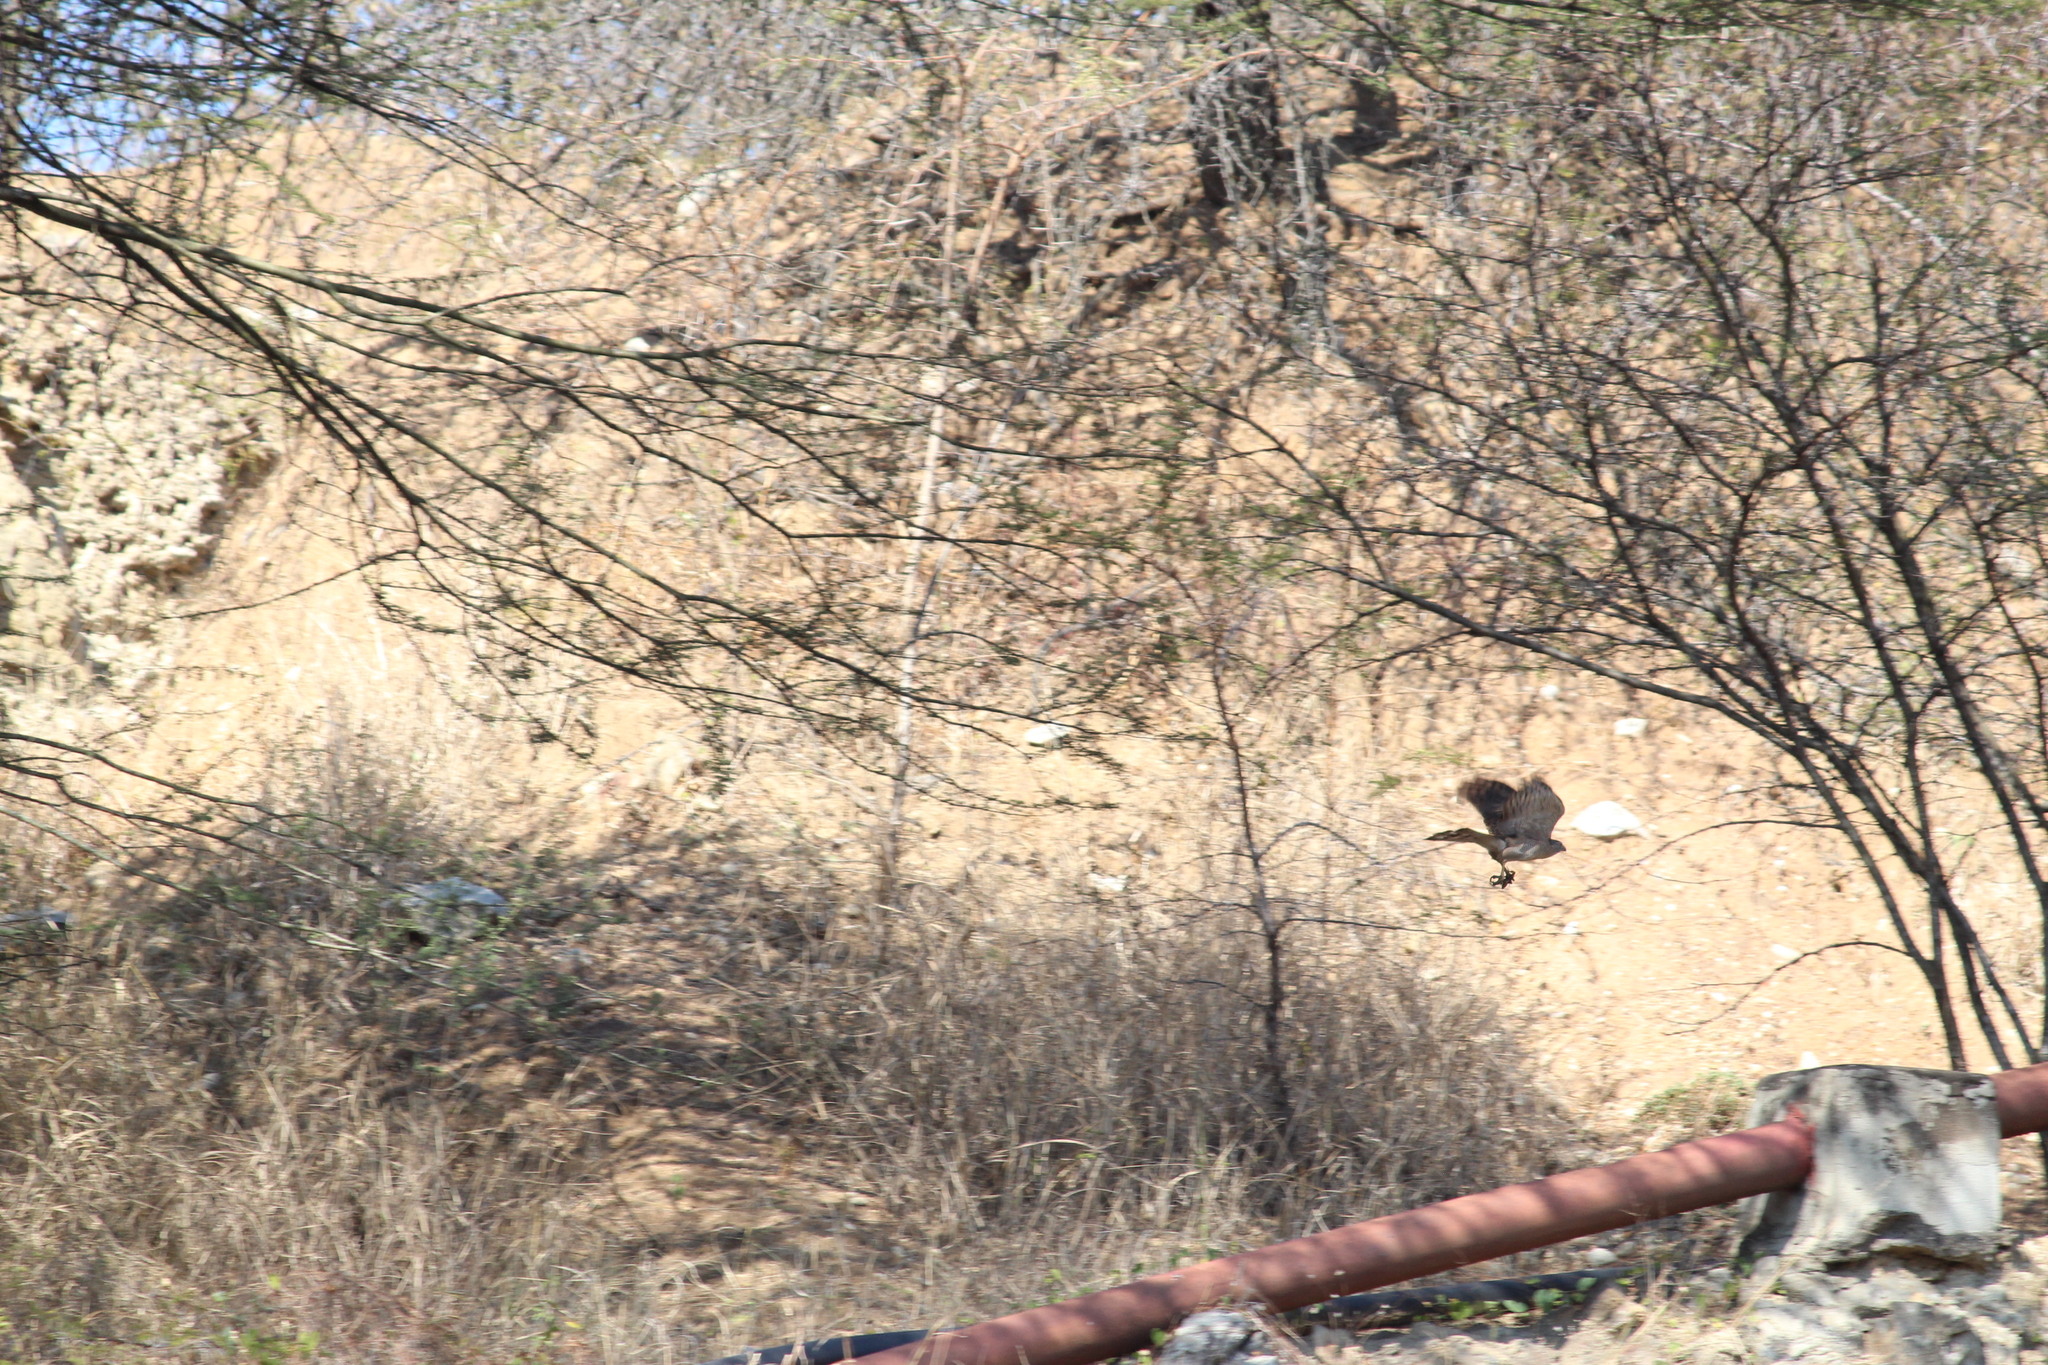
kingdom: Animalia
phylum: Chordata
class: Aves
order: Accipitriformes
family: Accipitridae
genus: Accipiter
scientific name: Accipiter tachiro
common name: African goshawk
